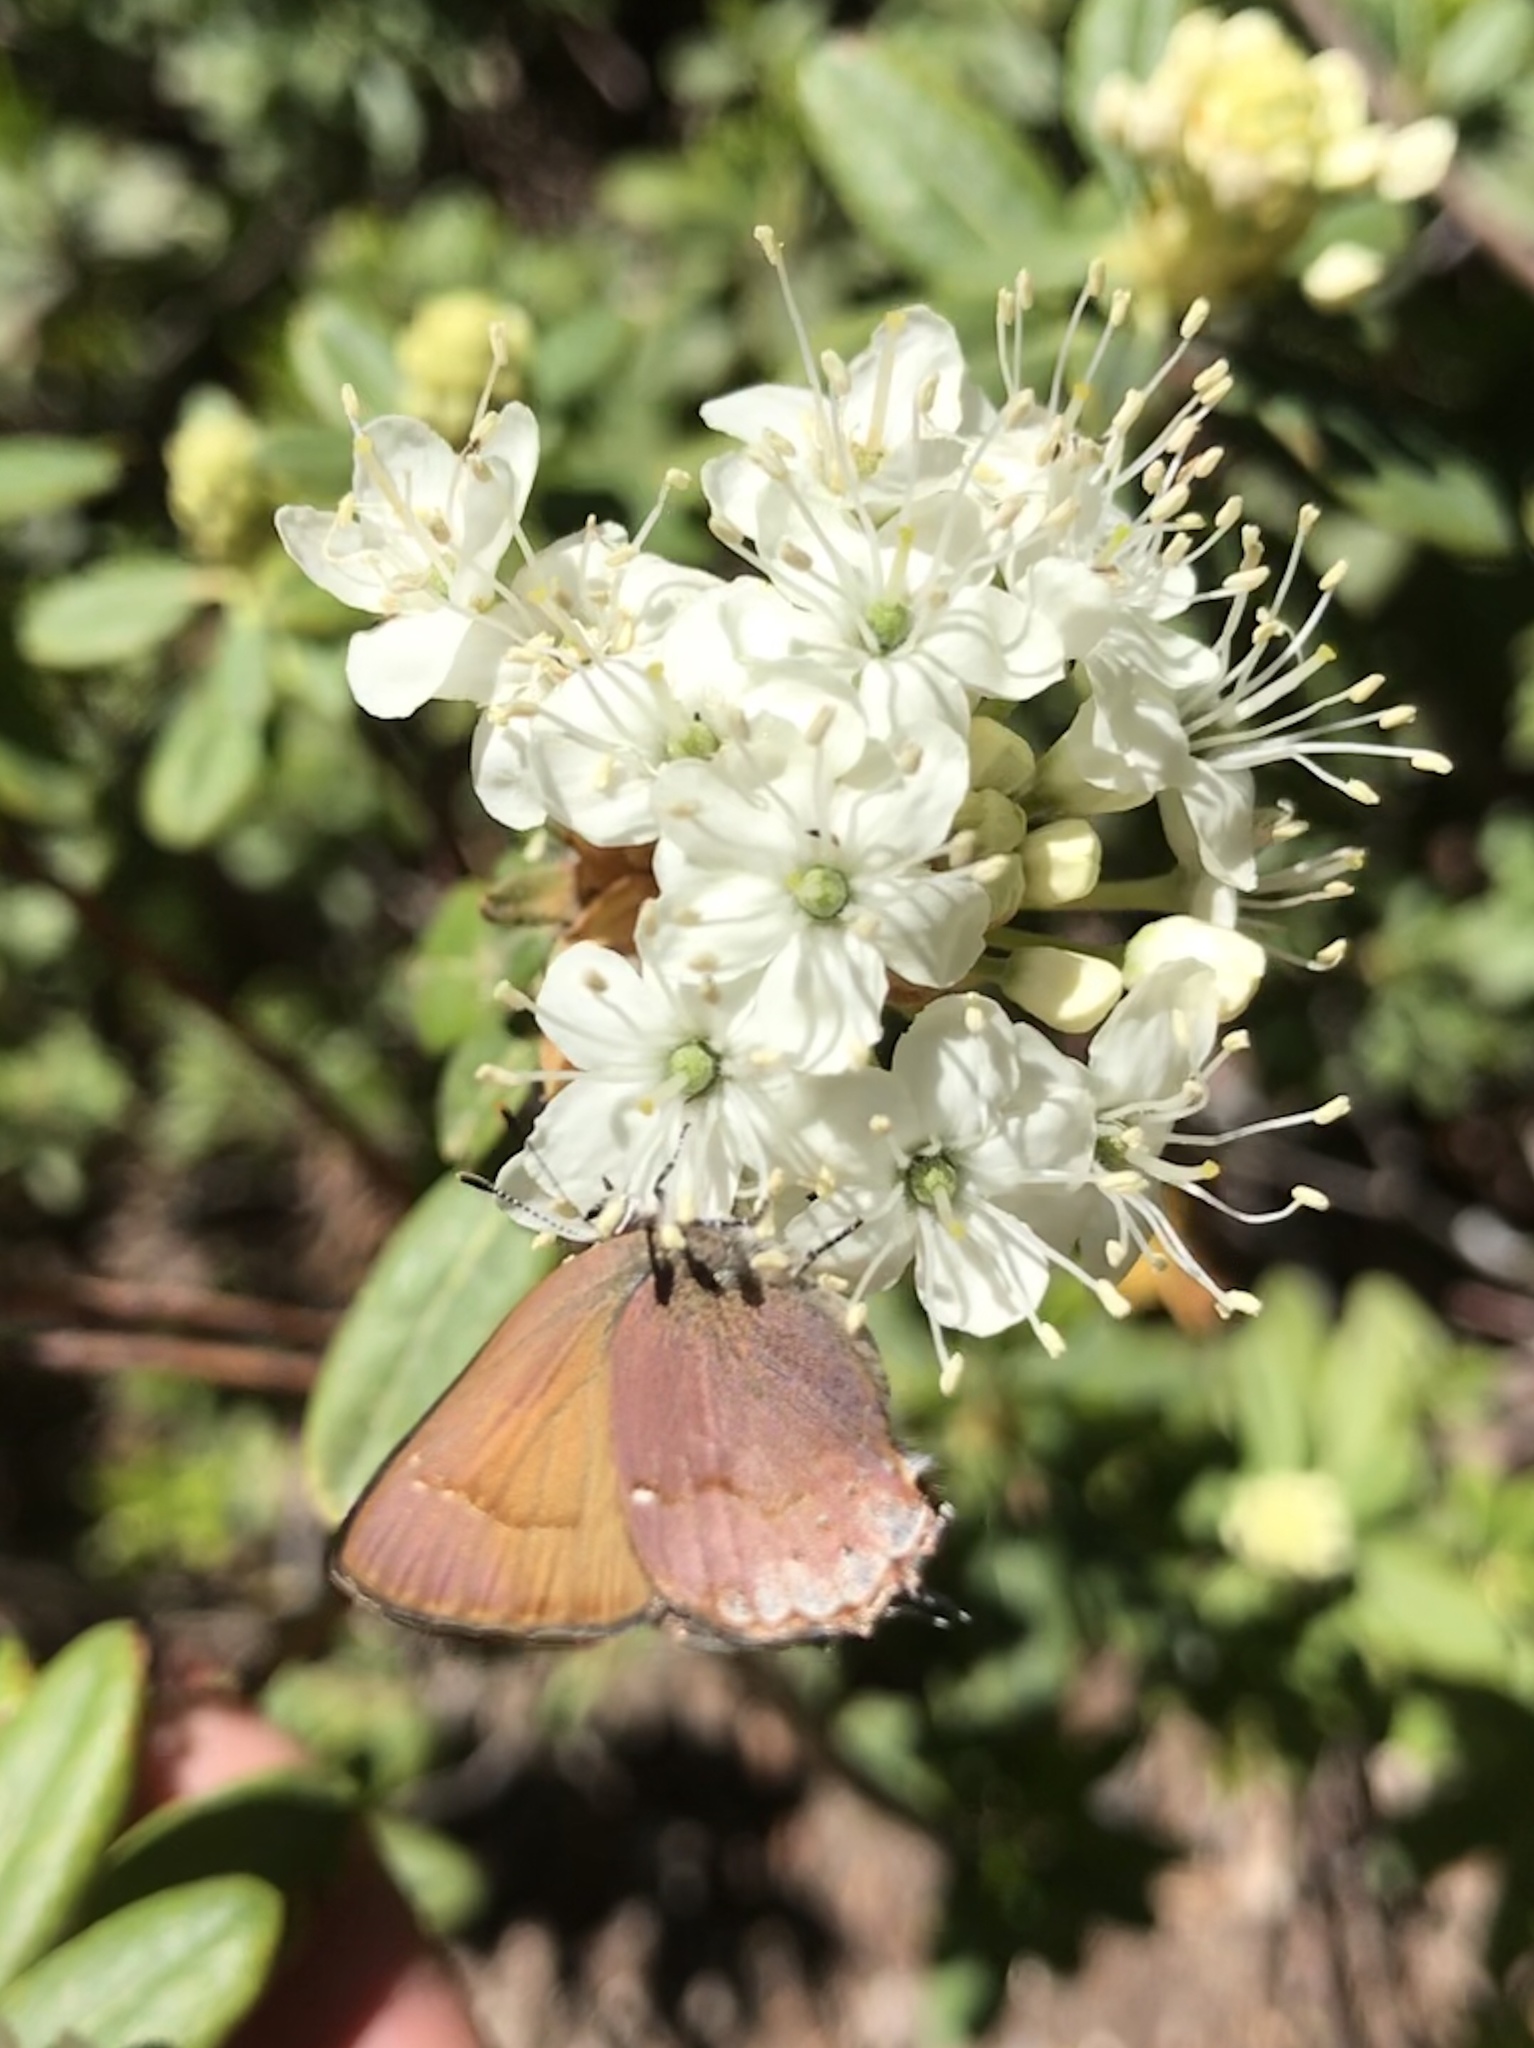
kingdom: Animalia
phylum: Arthropoda
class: Insecta
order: Lepidoptera
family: Lycaenidae
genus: Mitoura
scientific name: Mitoura nelsoni
